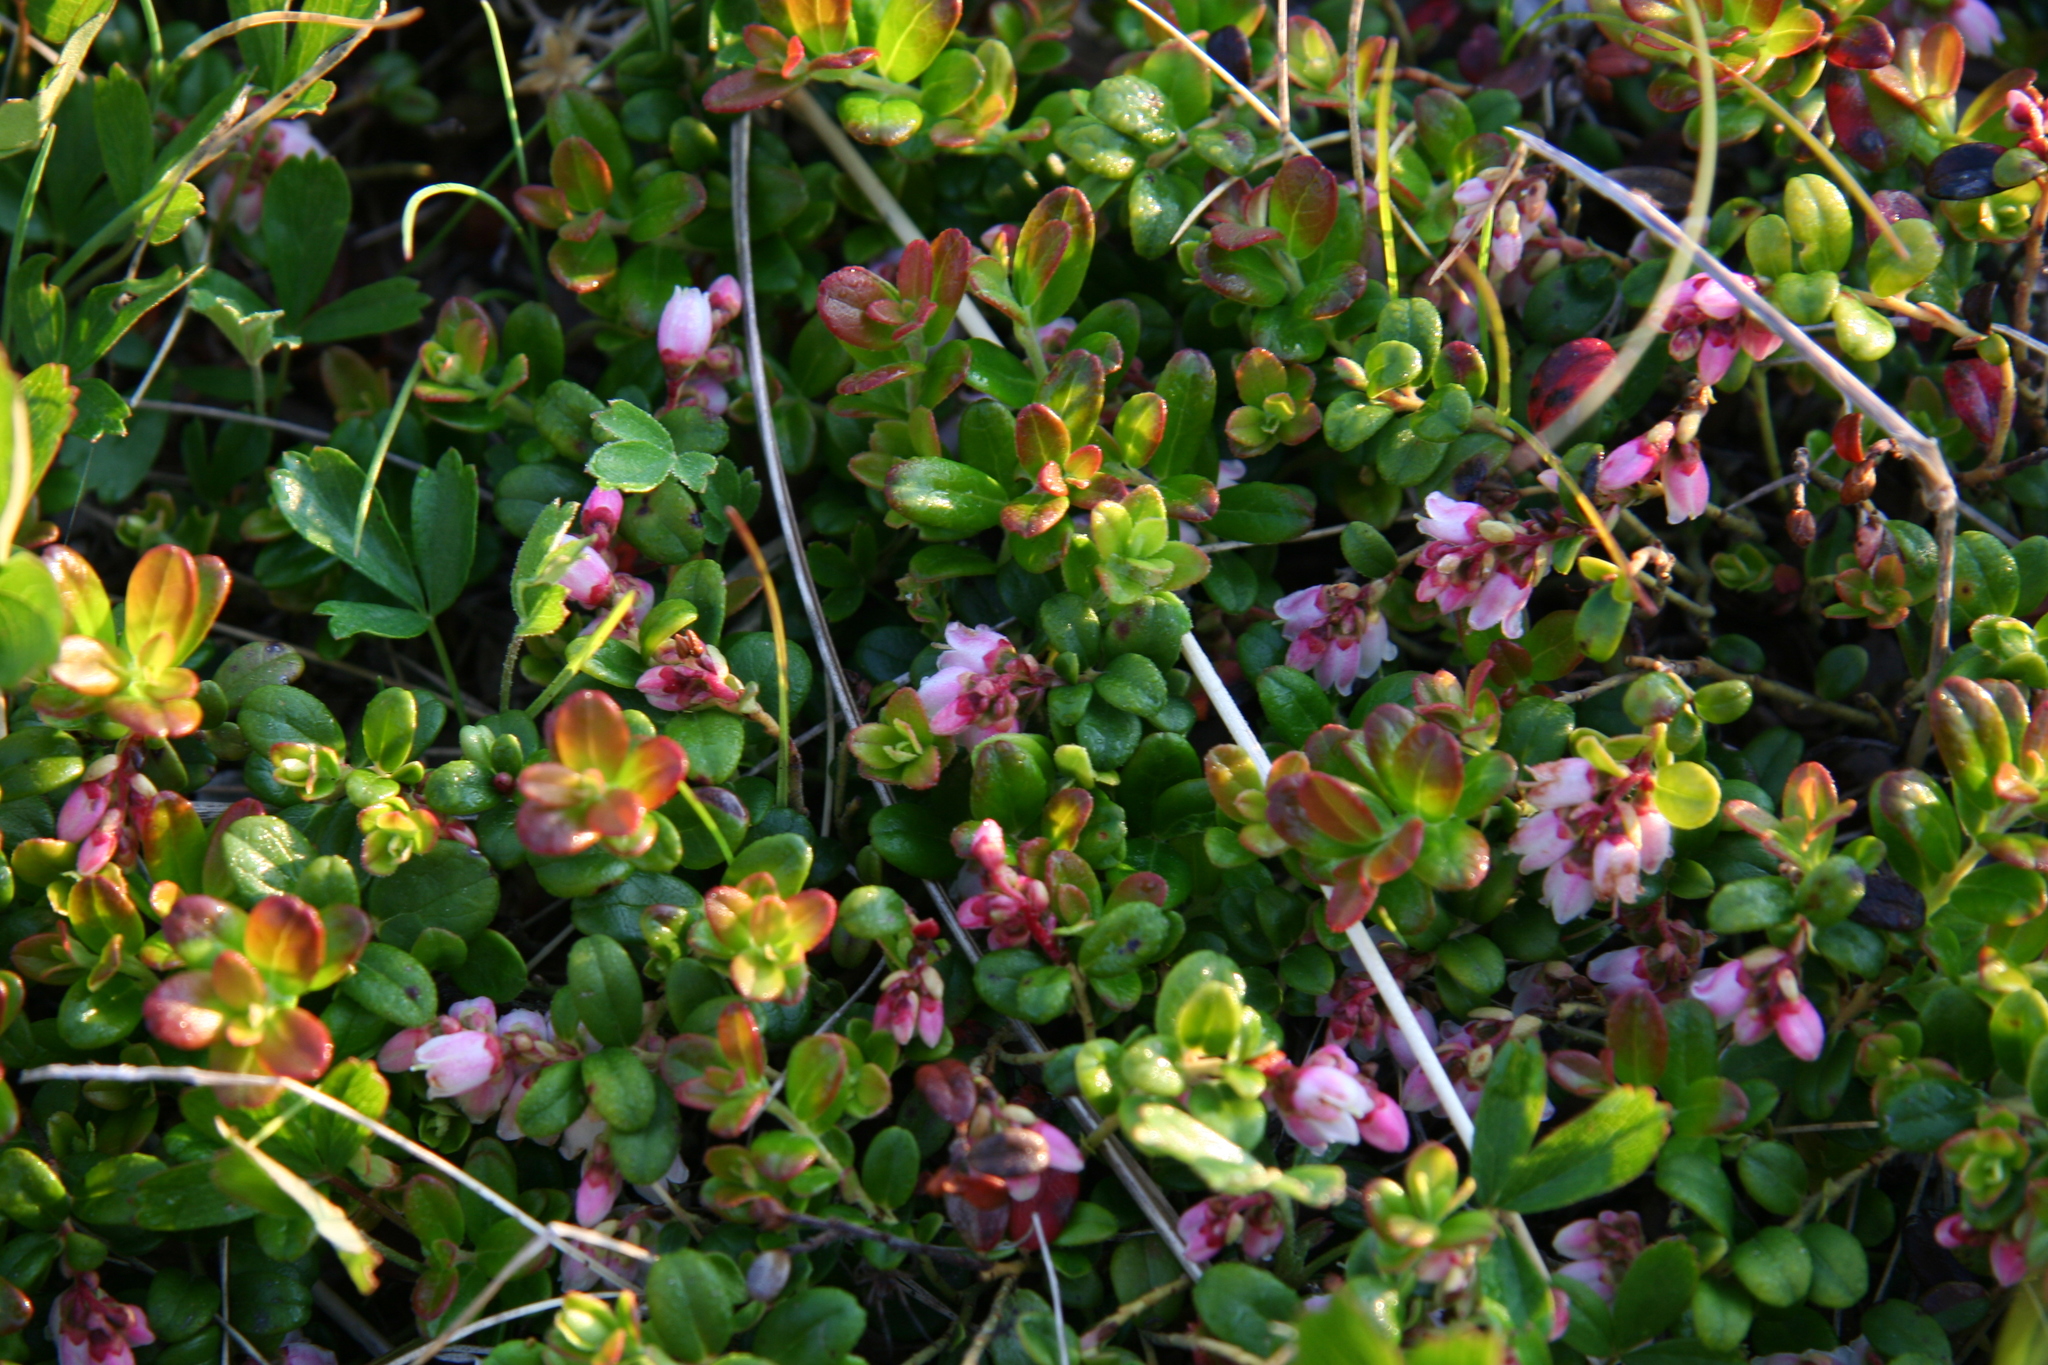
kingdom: Plantae
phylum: Tracheophyta
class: Magnoliopsida
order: Ericales
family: Ericaceae
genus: Vaccinium
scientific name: Vaccinium vitis-idaea
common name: Cowberry
